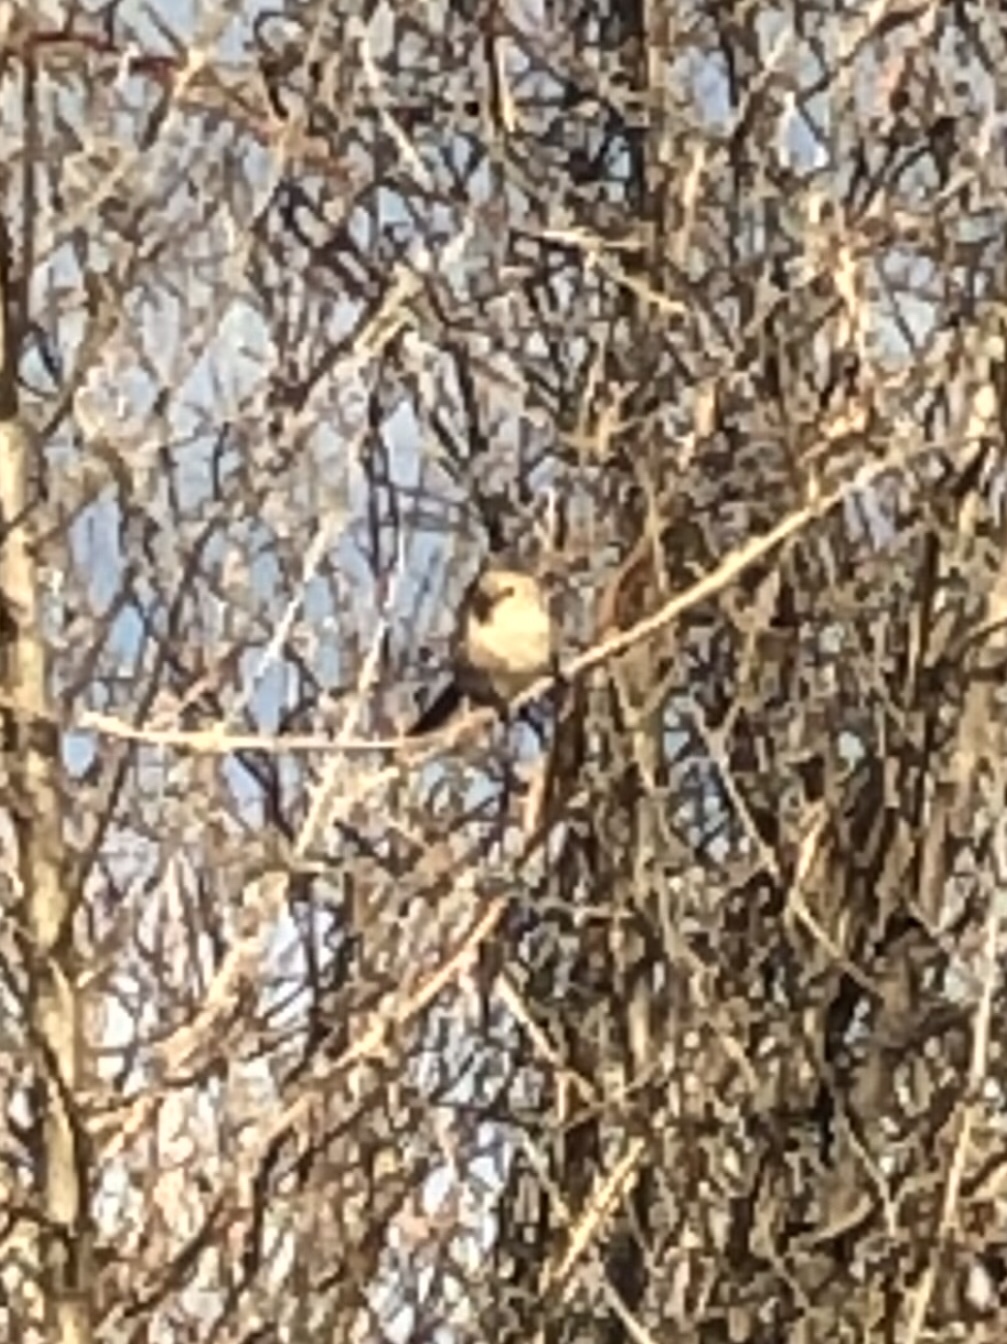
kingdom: Animalia
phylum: Chordata
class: Aves
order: Passeriformes
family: Aegithalidae
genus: Psaltriparus
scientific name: Psaltriparus minimus
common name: American bushtit
